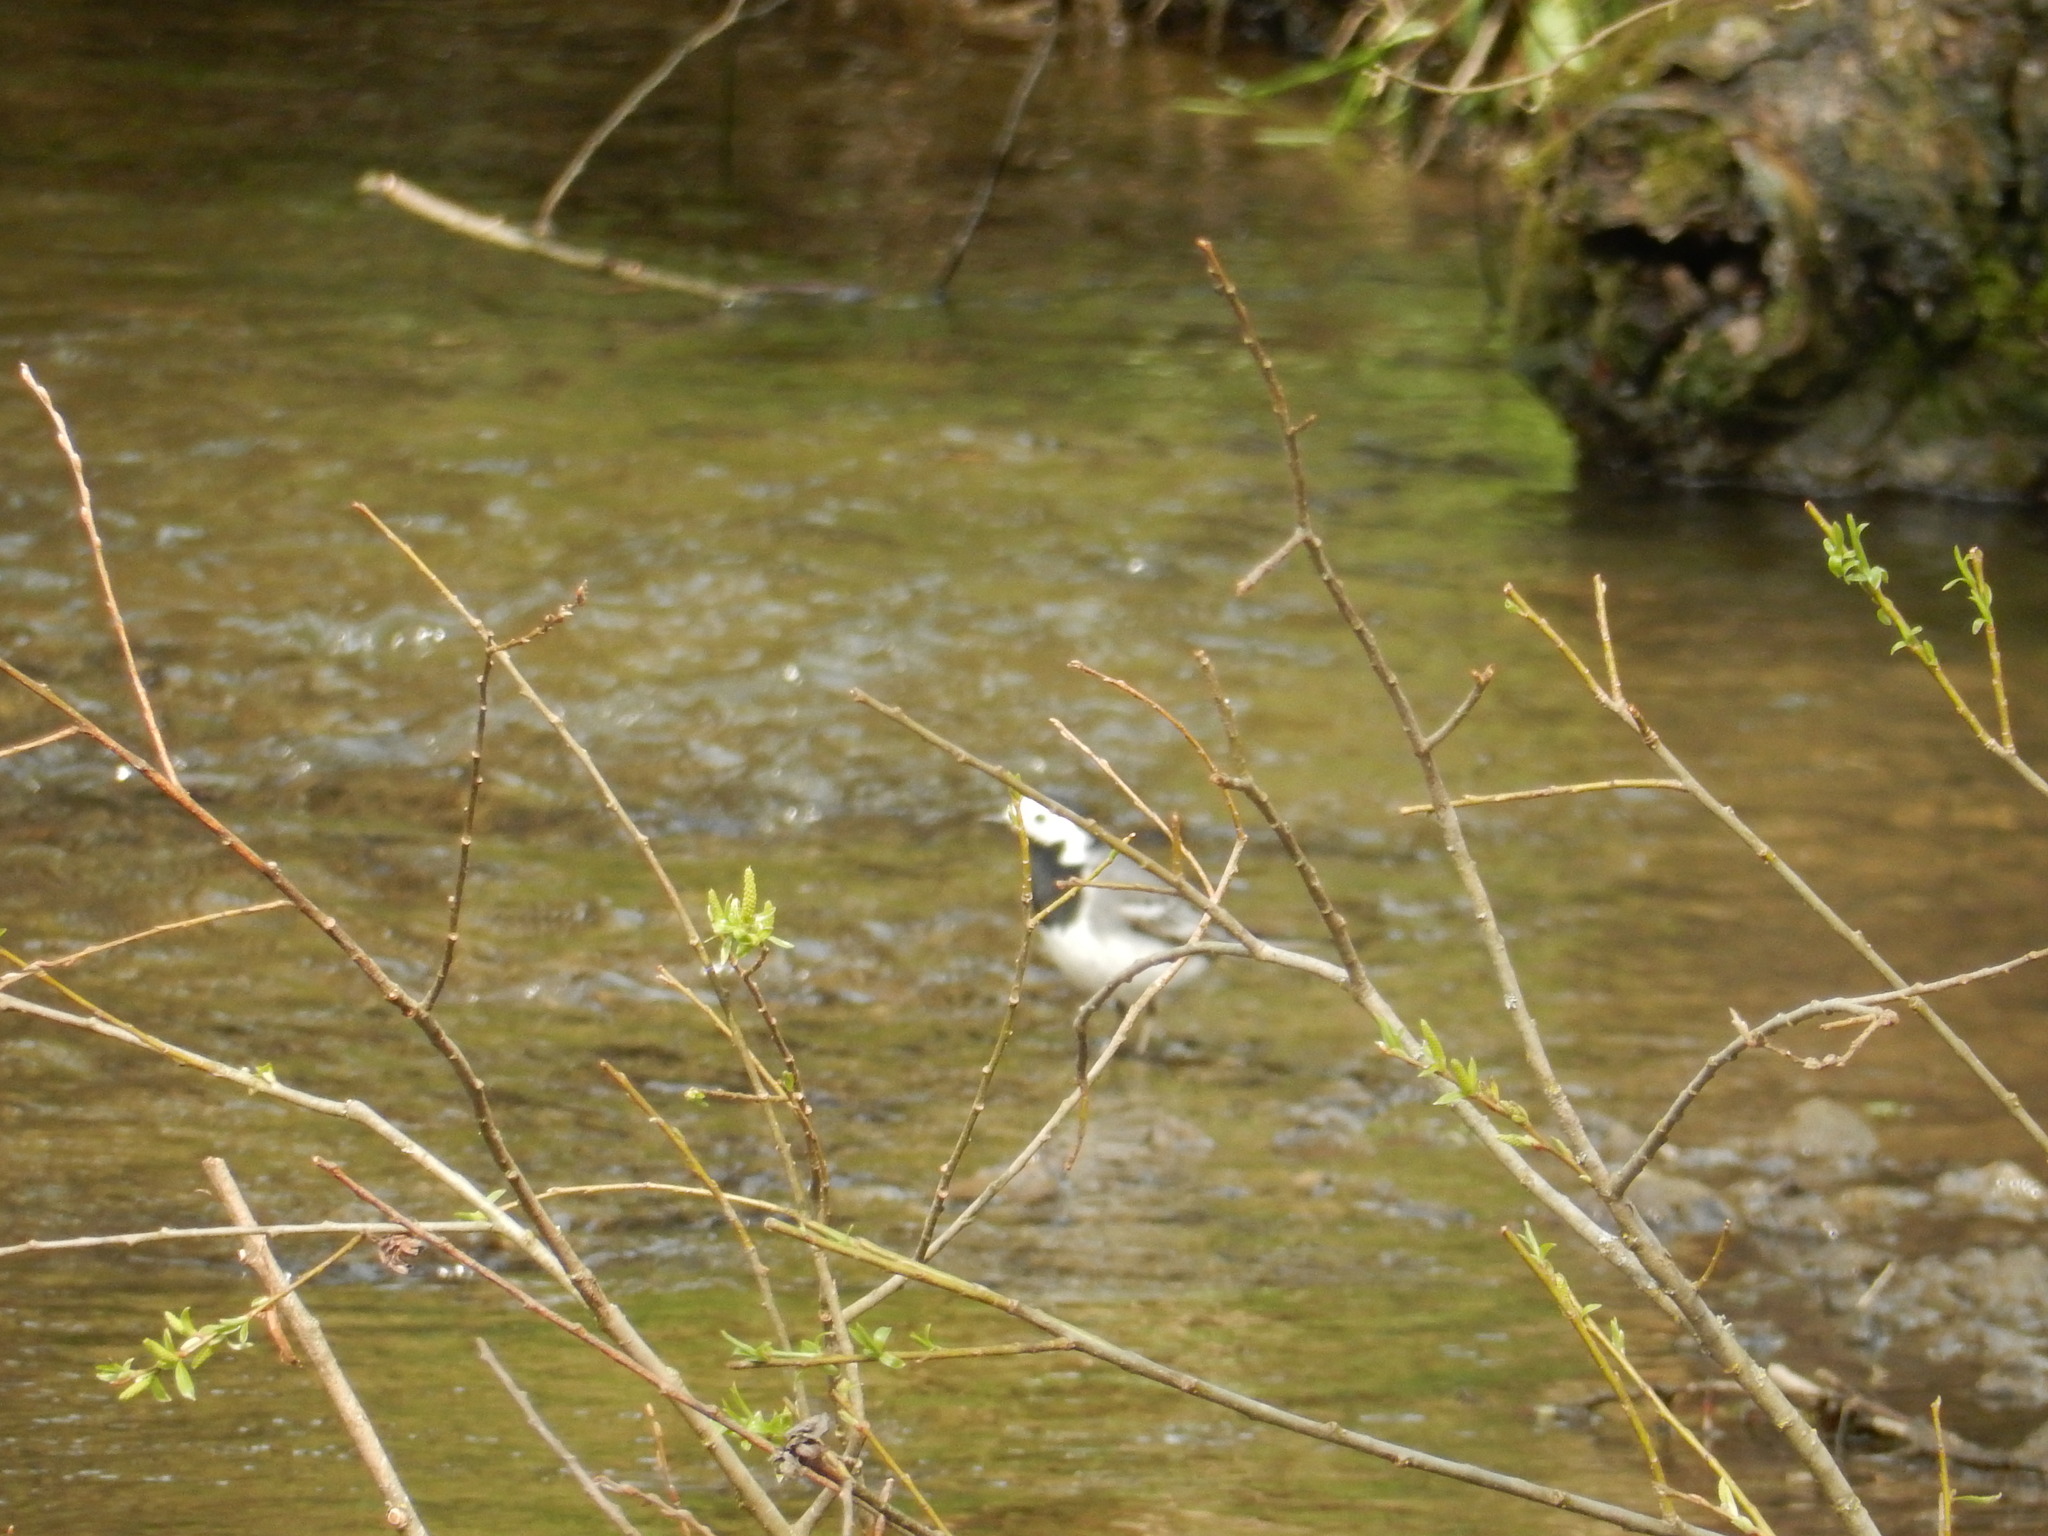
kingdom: Animalia
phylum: Chordata
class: Aves
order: Passeriformes
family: Motacillidae
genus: Motacilla
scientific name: Motacilla alba
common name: White wagtail
